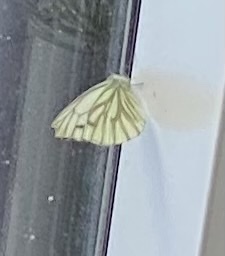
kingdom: Animalia
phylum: Arthropoda
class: Insecta
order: Lepidoptera
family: Pieridae
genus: Pieris
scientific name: Pieris napi
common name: Green-veined white
